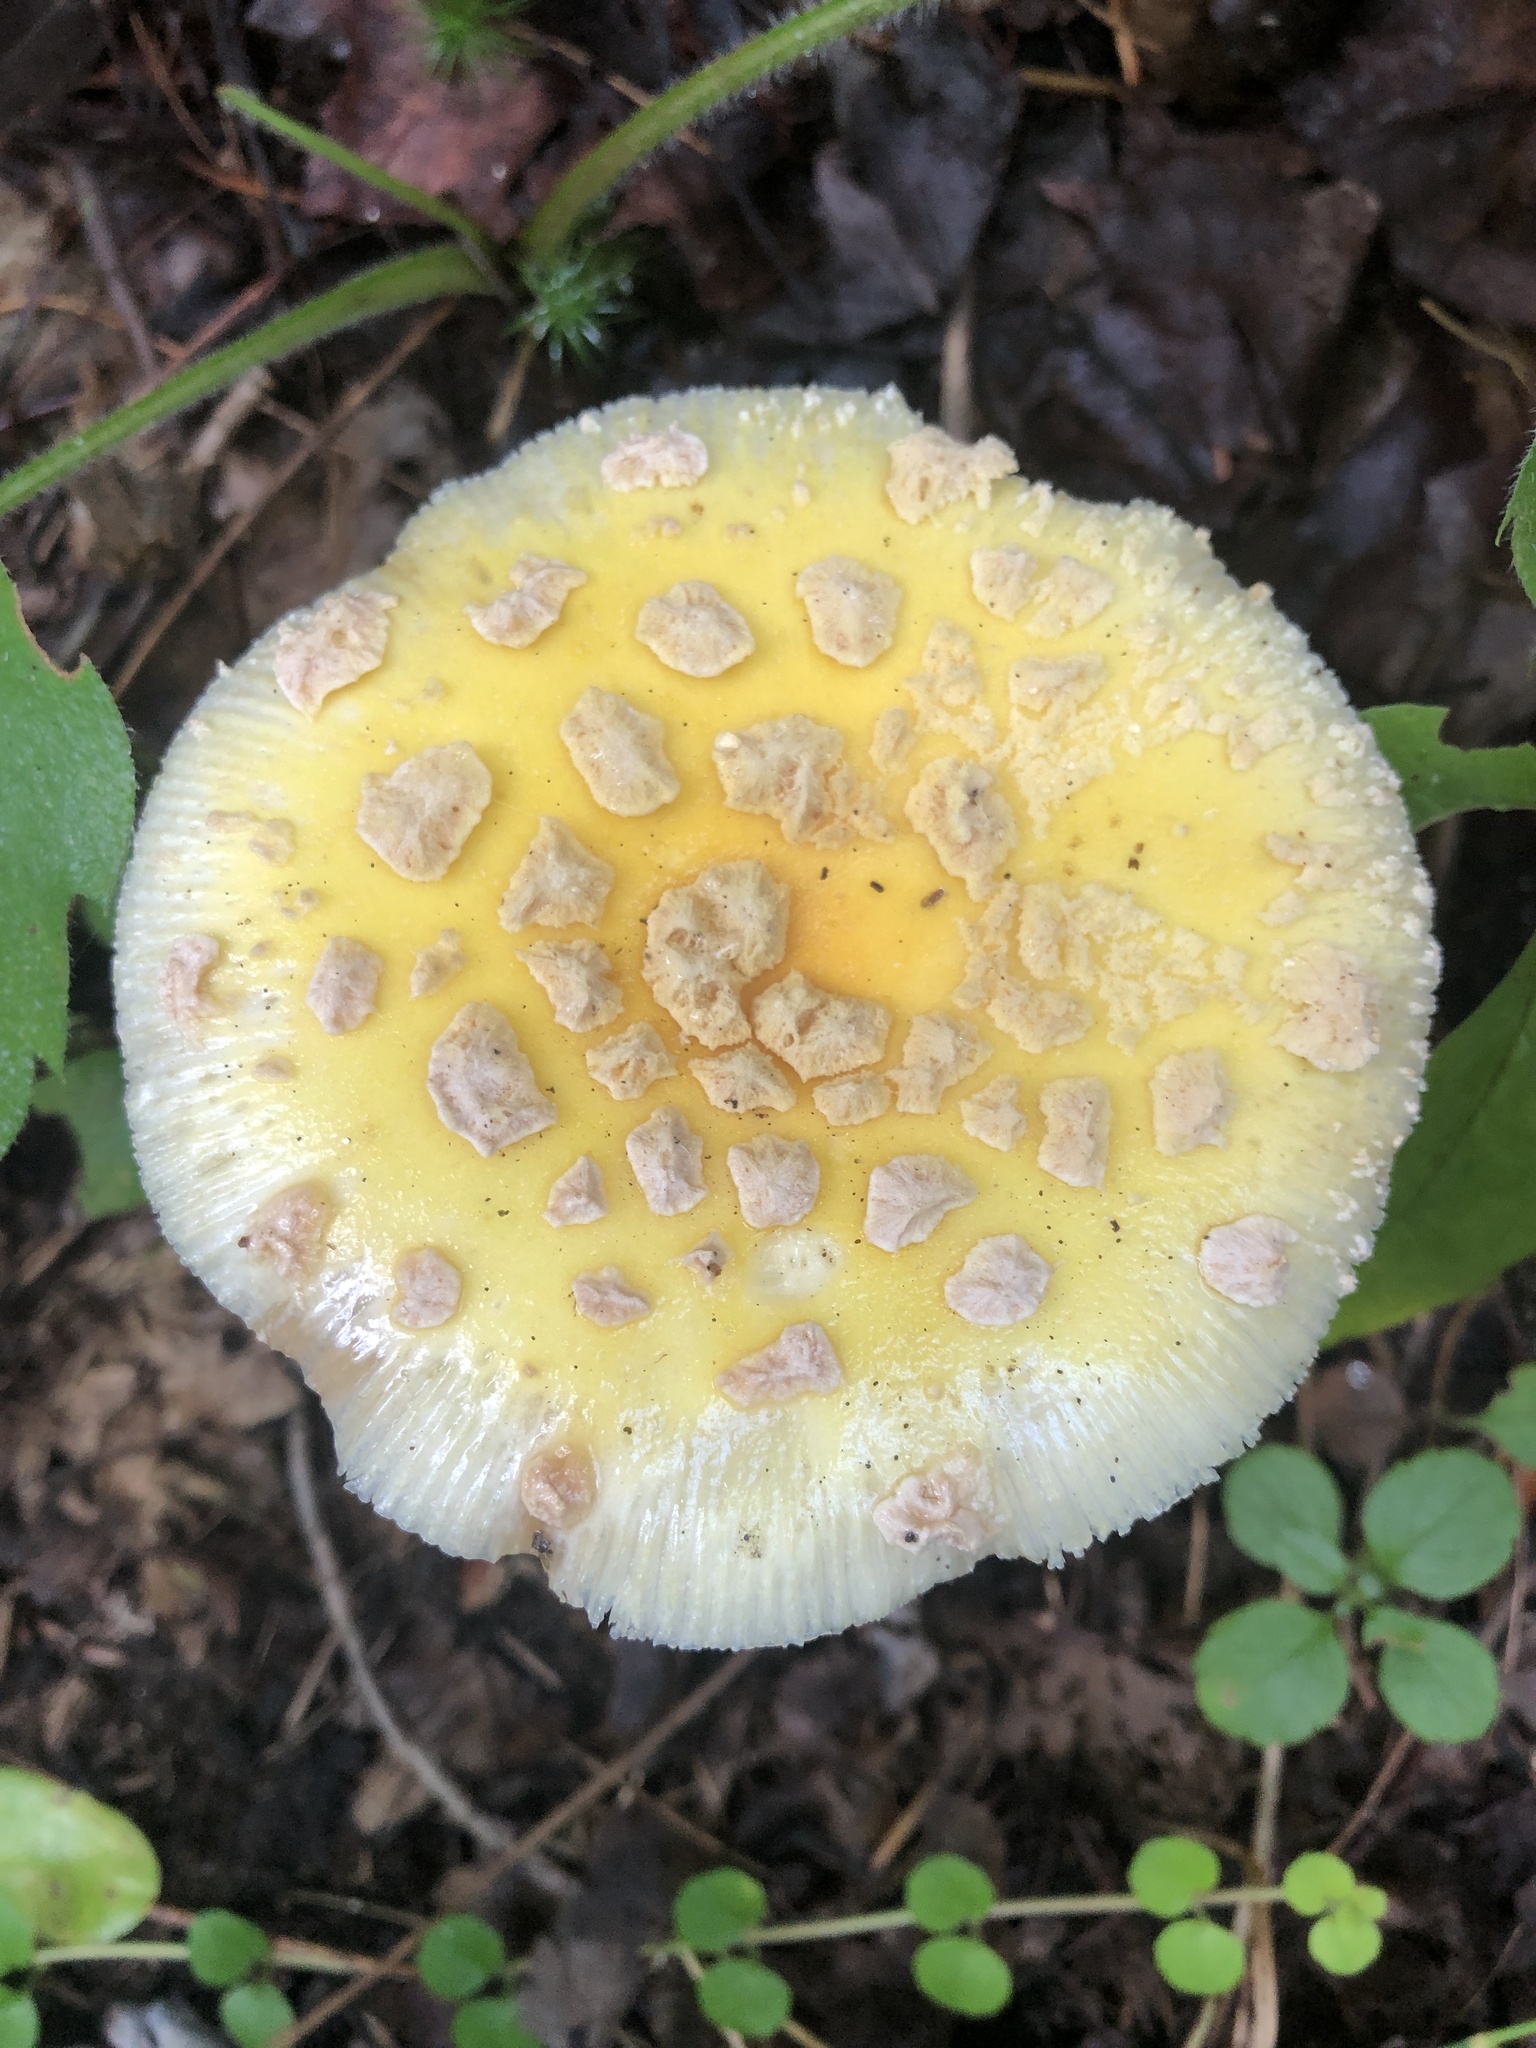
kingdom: Fungi
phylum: Basidiomycota
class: Agaricomycetes
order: Agaricales
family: Amanitaceae
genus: Amanita
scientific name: Amanita muscaria
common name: Fly agaric
